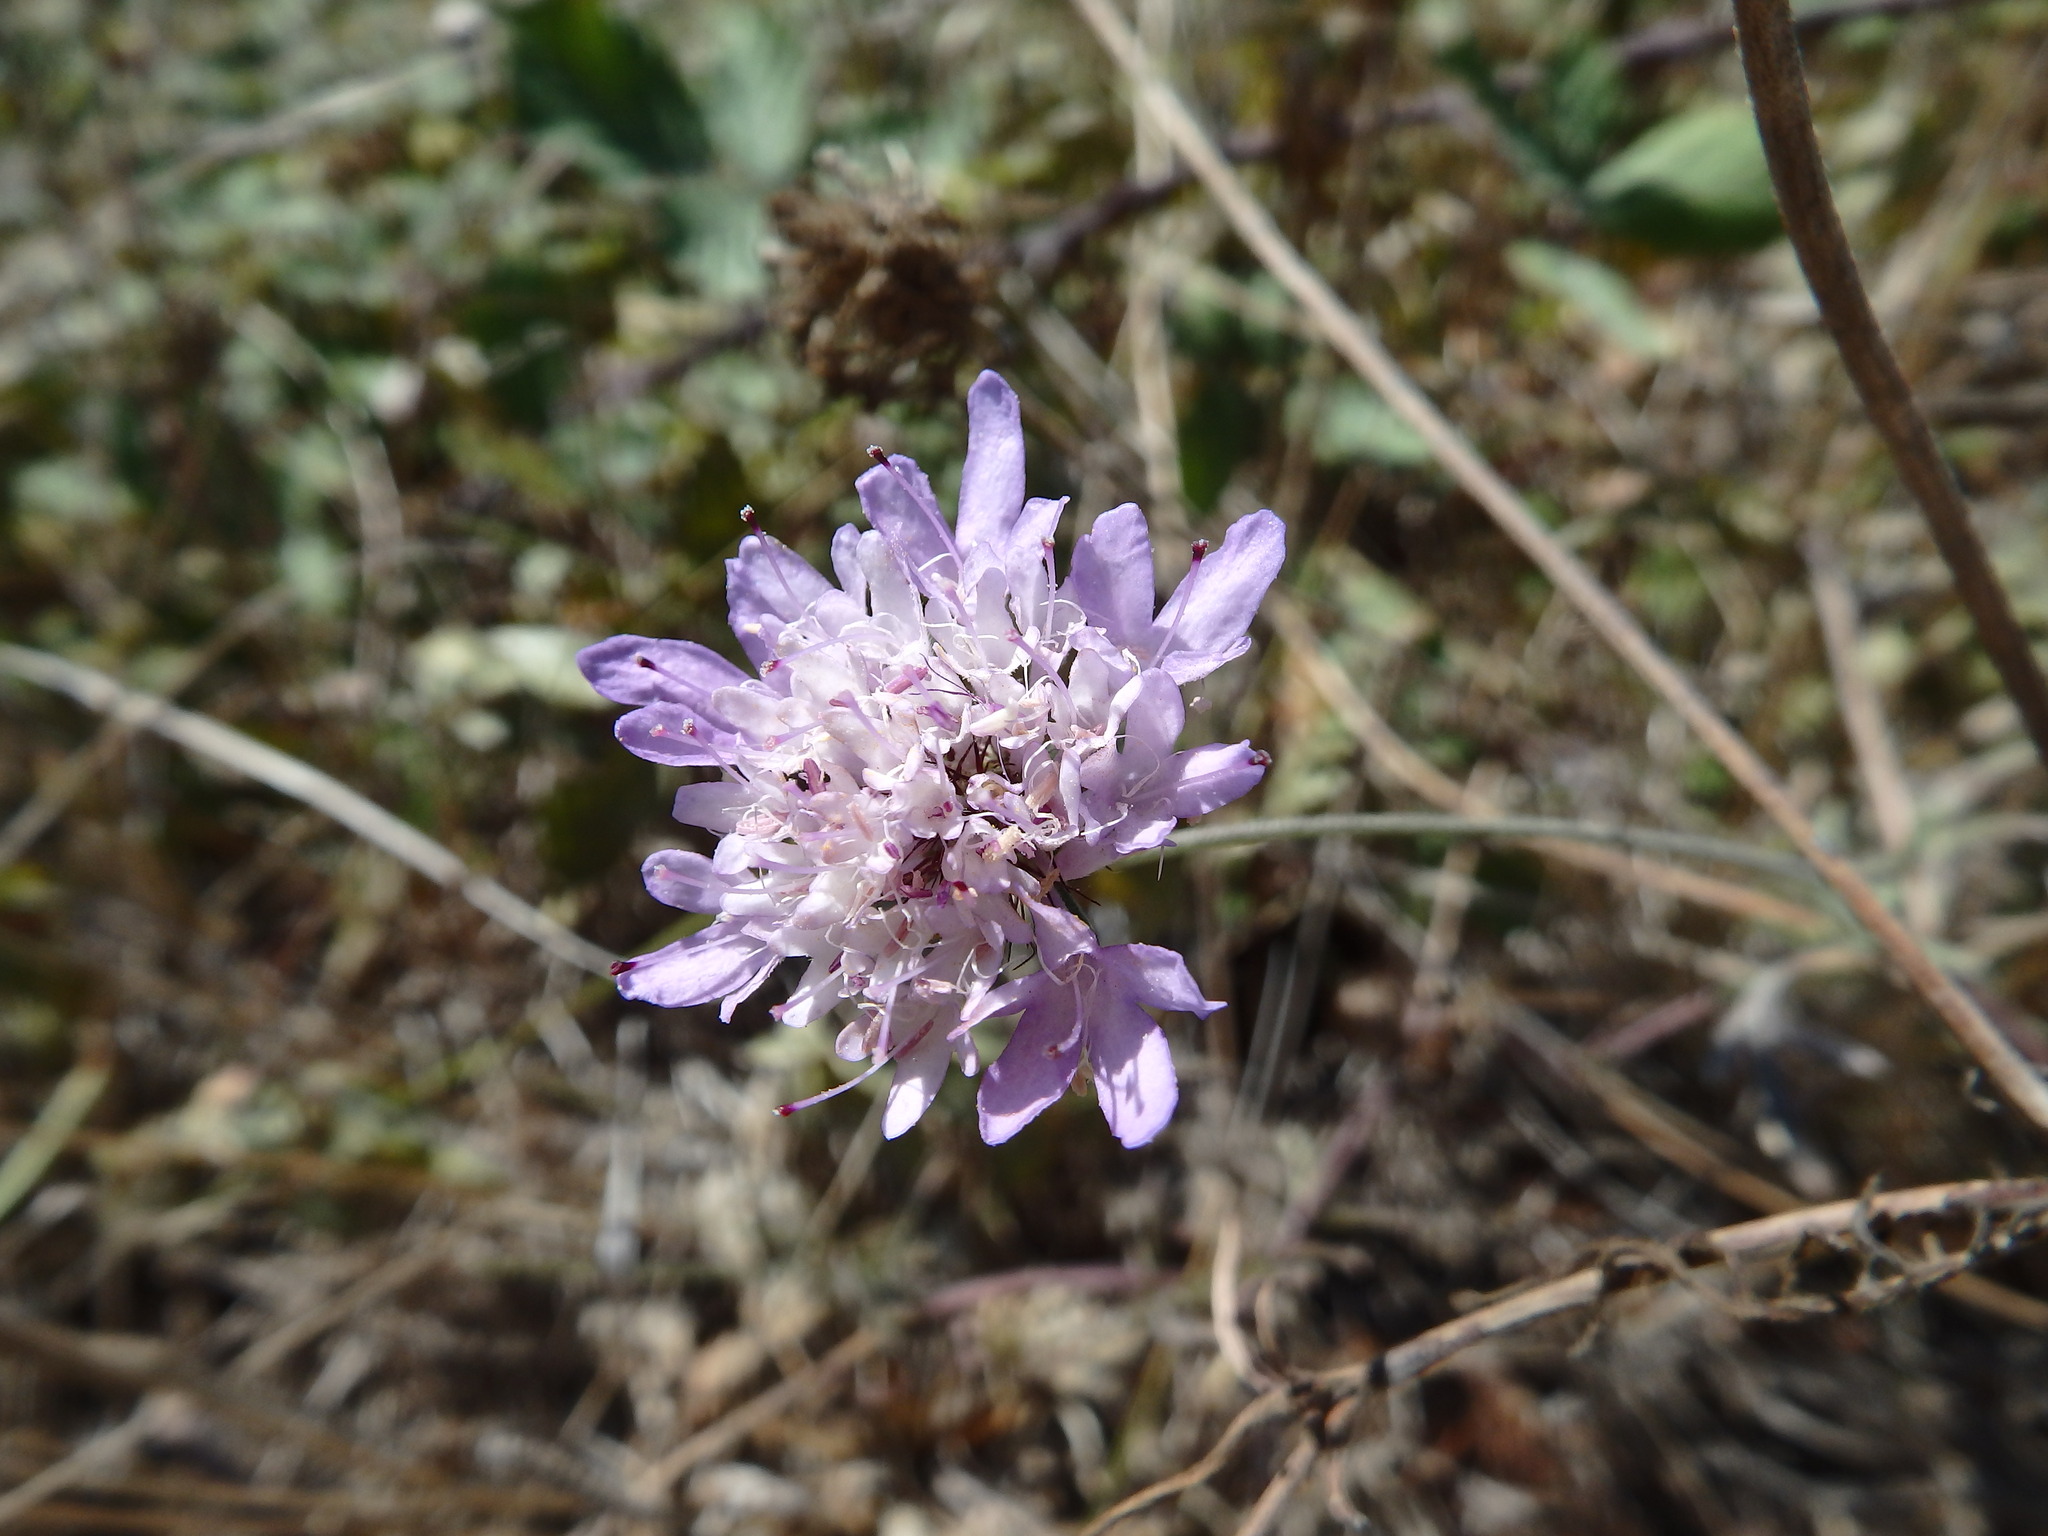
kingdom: Plantae
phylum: Tracheophyta
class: Magnoliopsida
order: Dipsacales
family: Caprifoliaceae
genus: Sixalix
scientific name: Sixalix atropurpurea
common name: Sweet scabious
